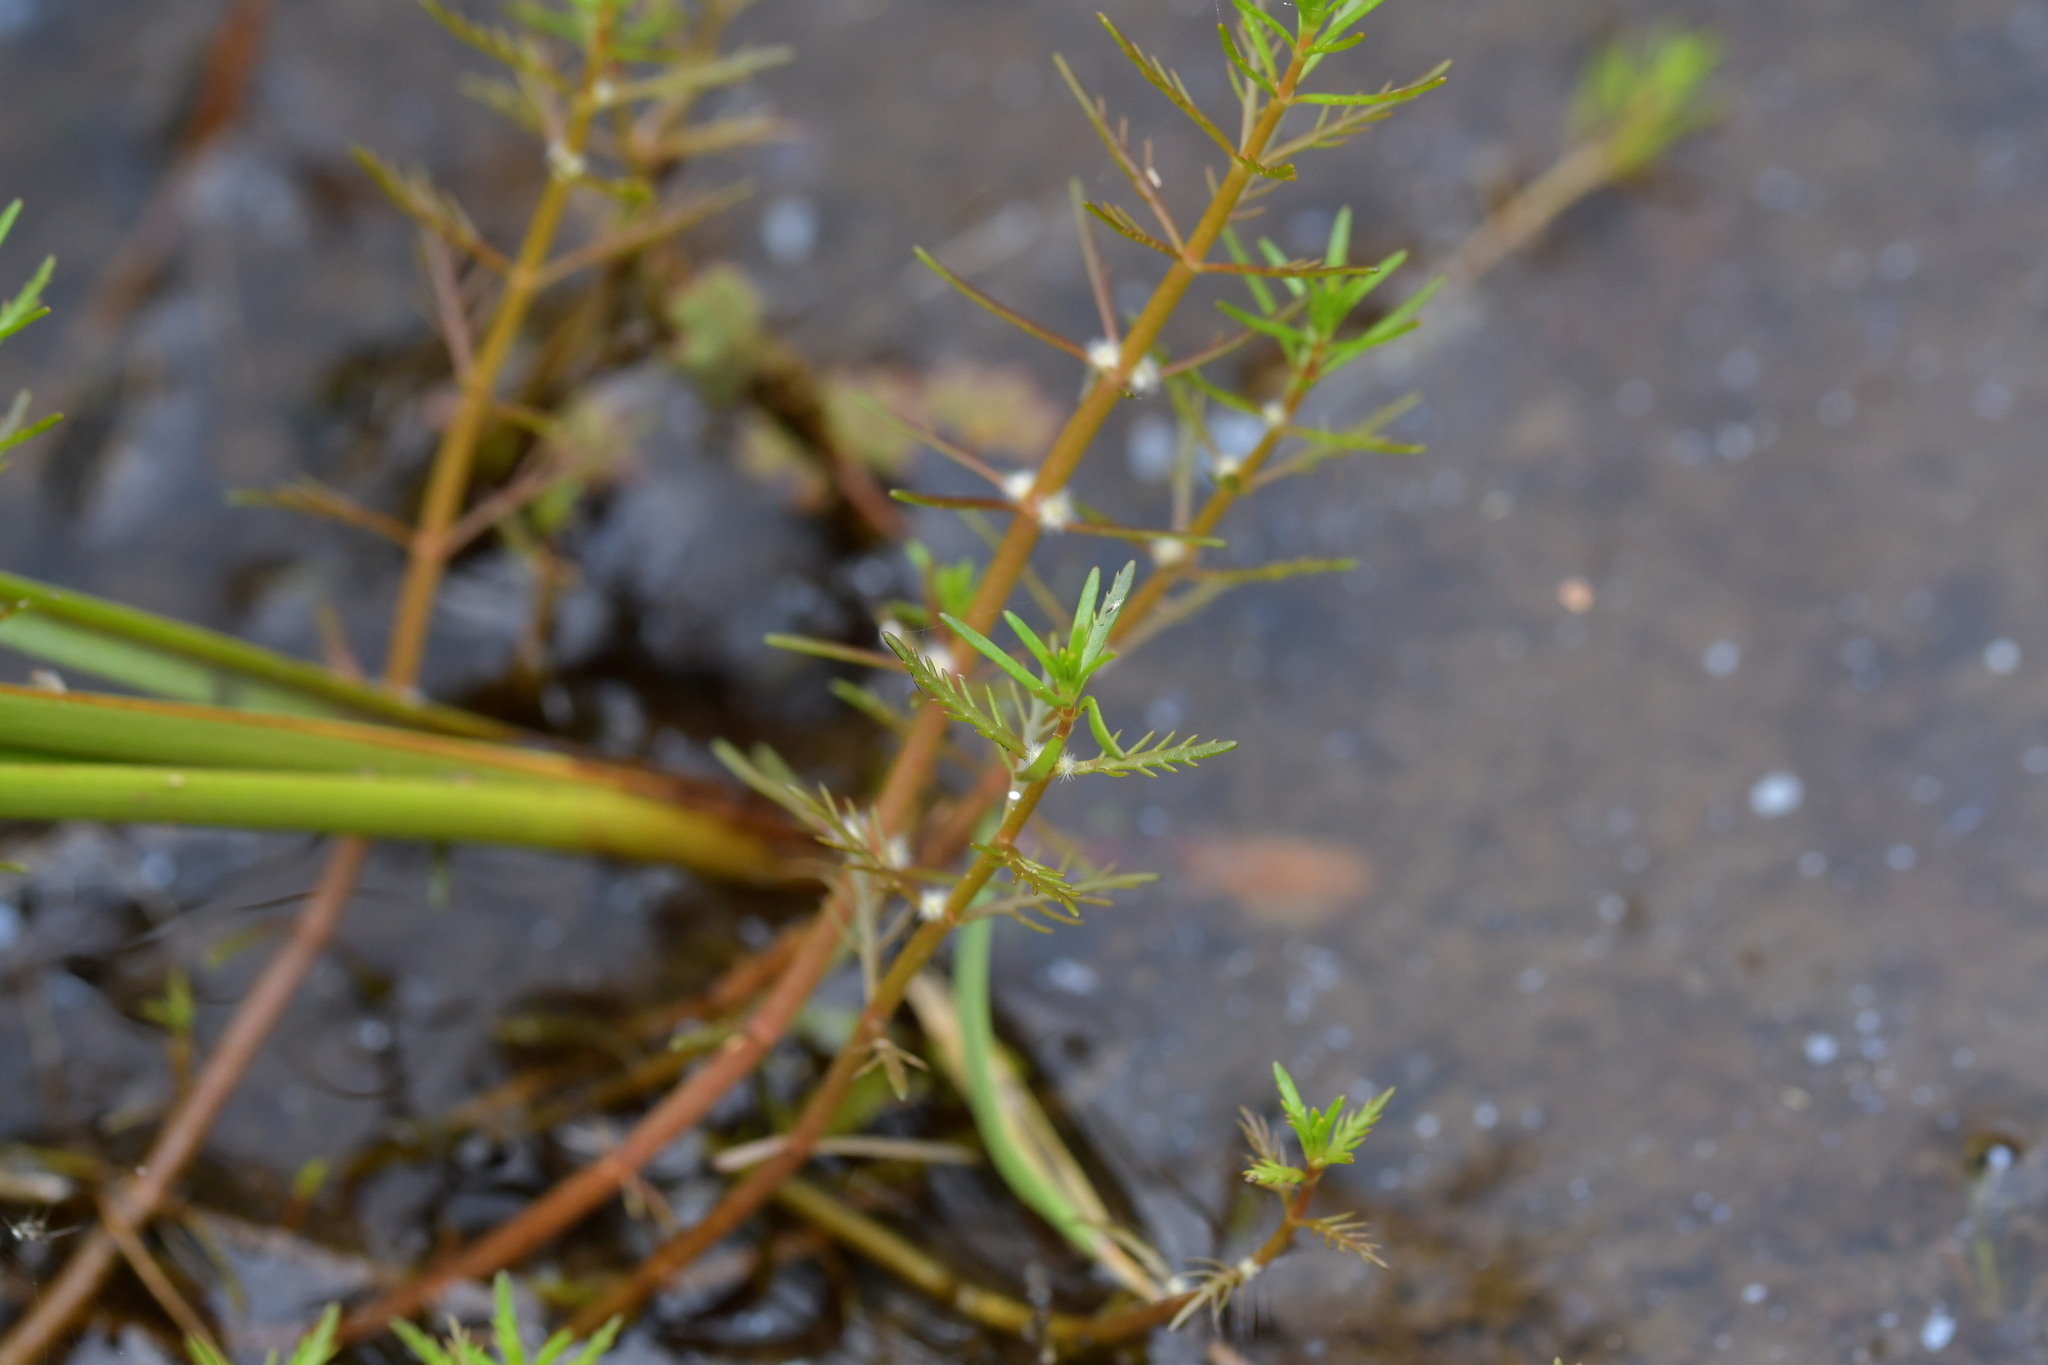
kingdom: Plantae
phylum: Tracheophyta
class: Magnoliopsida
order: Saxifragales
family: Haloragaceae
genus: Myriophyllum
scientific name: Myriophyllum propinquum
